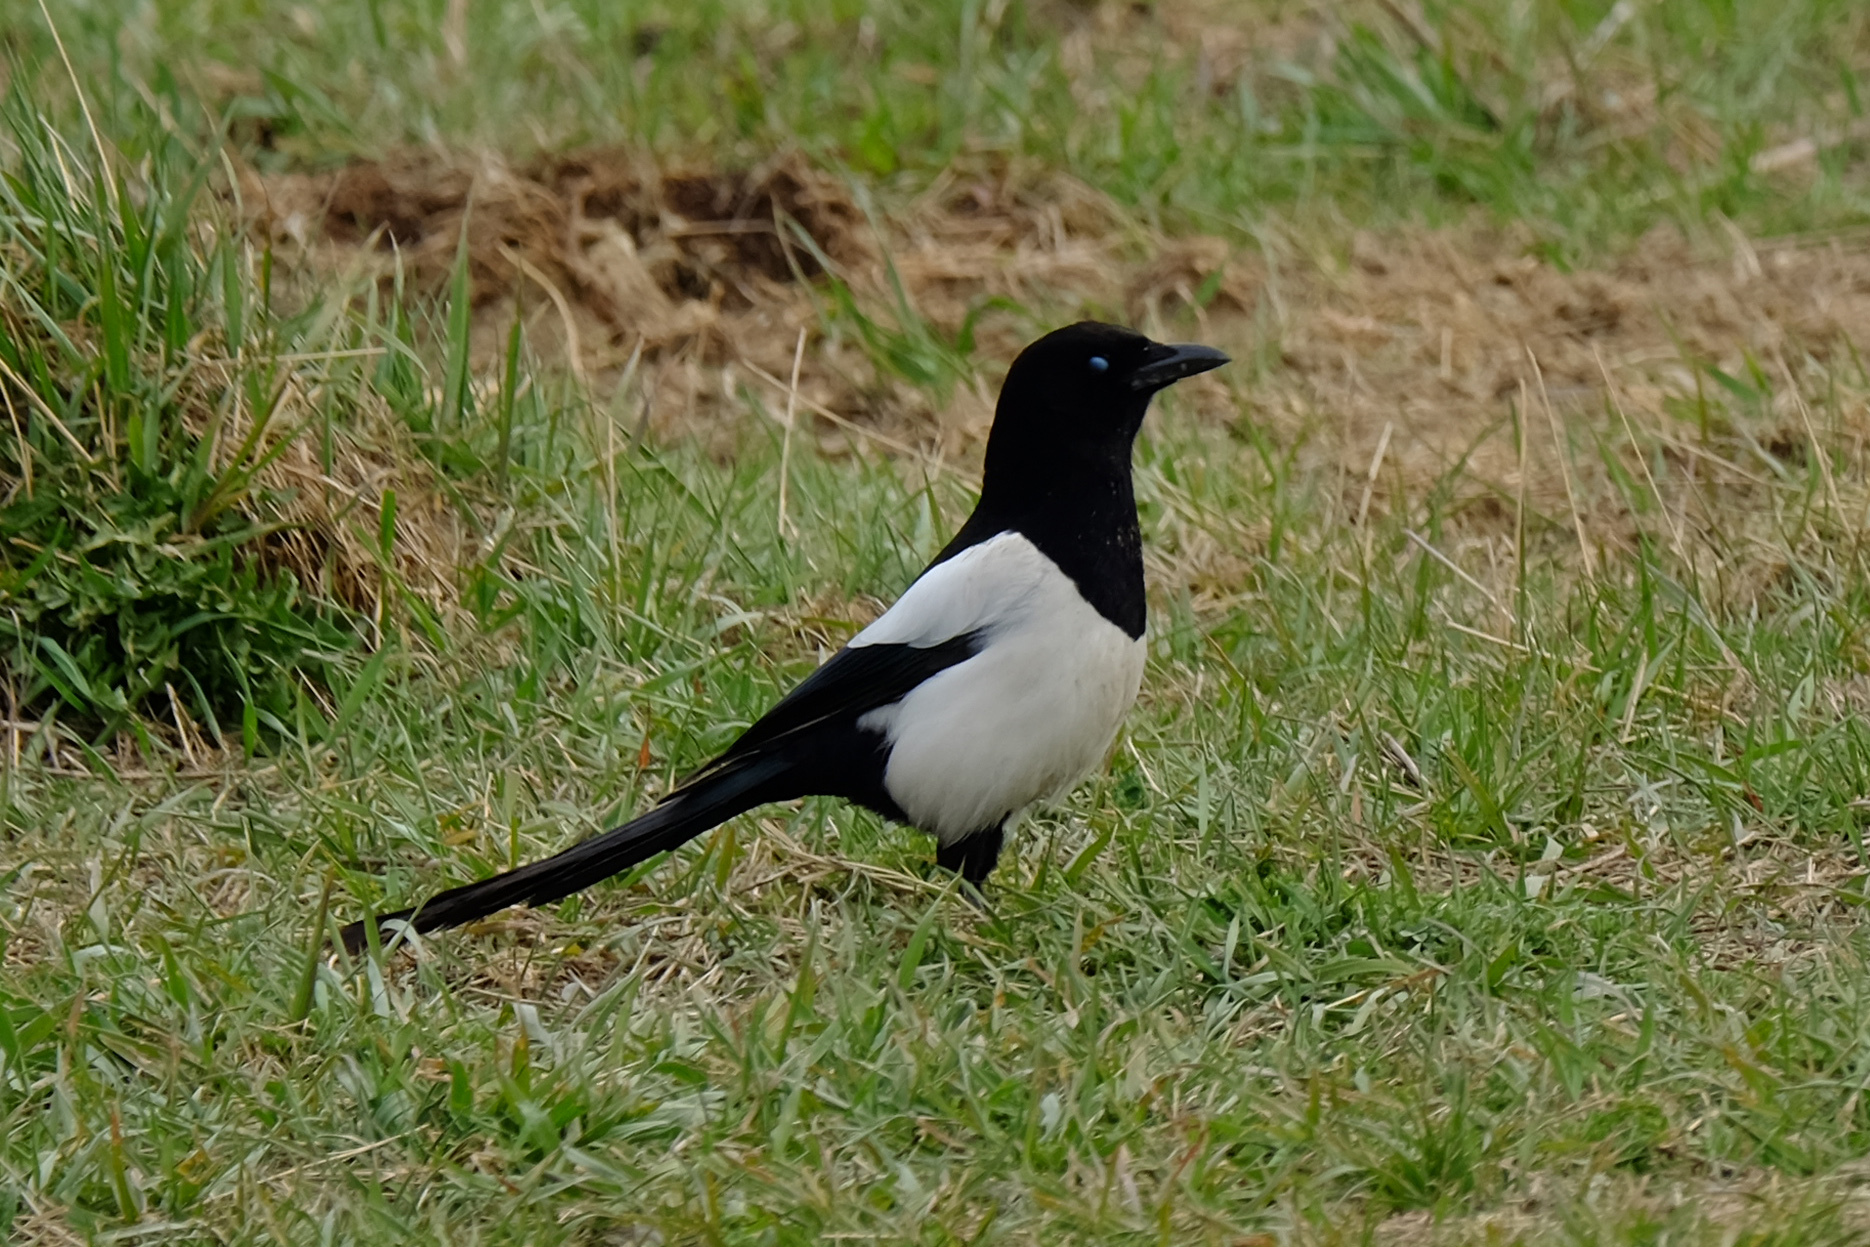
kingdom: Animalia
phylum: Chordata
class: Aves
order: Passeriformes
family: Corvidae
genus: Pica
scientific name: Pica pica
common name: Eurasian magpie
